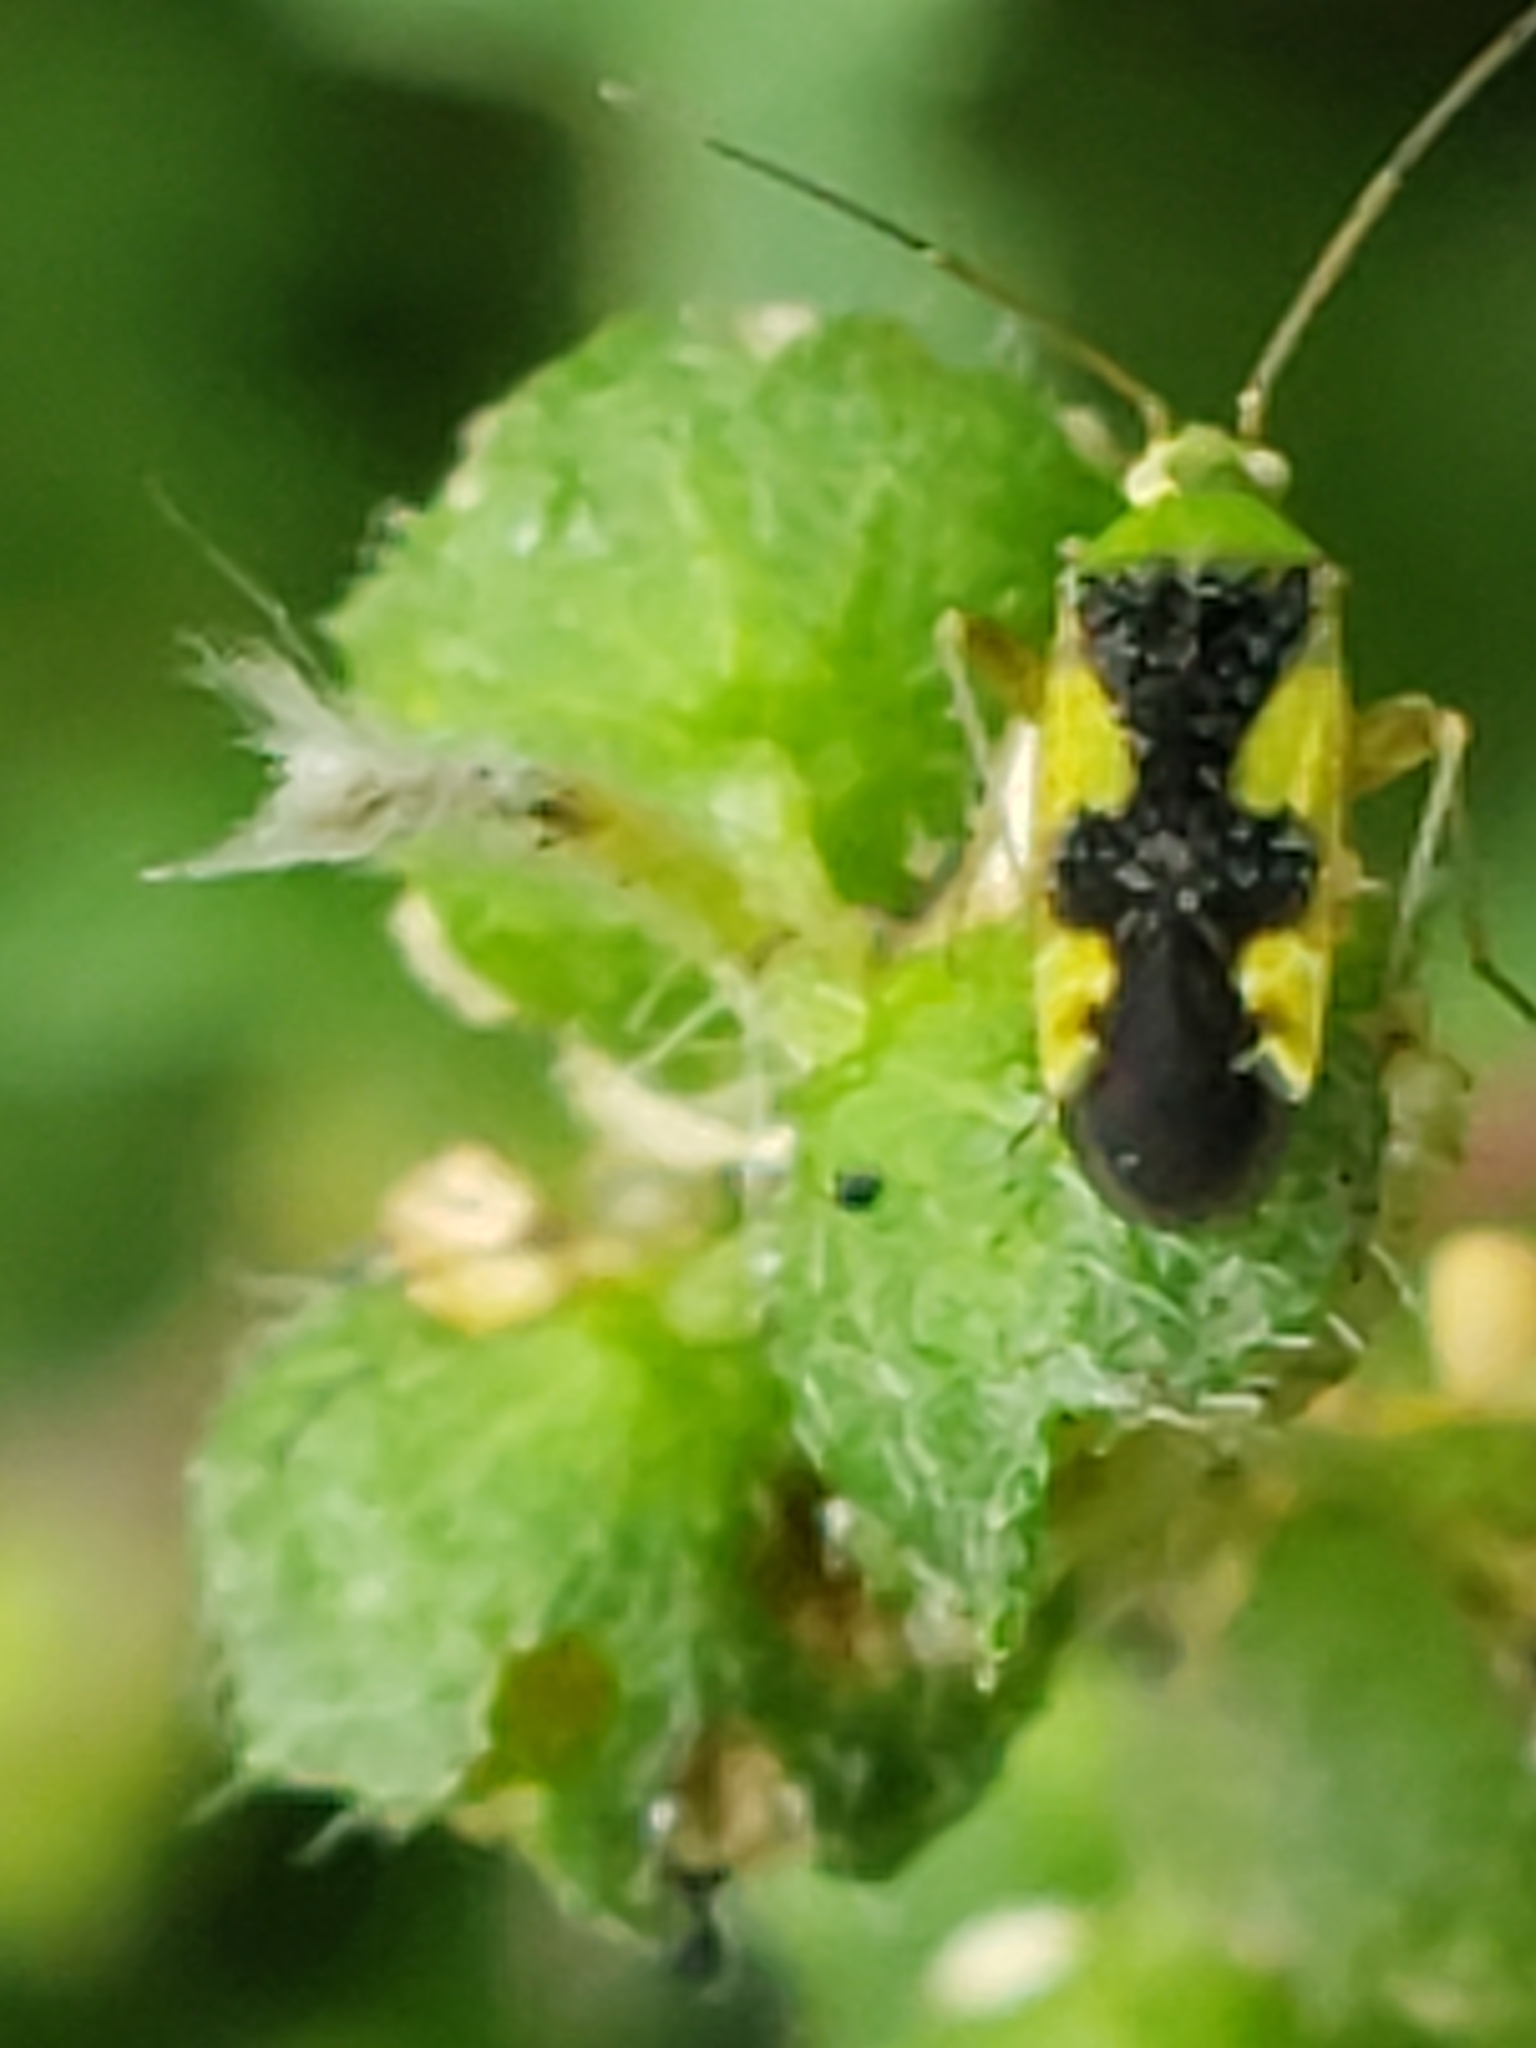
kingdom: Animalia
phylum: Arthropoda
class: Insecta
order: Hemiptera
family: Miridae
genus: Reuteroscopus
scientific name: Reuteroscopus ornatus
